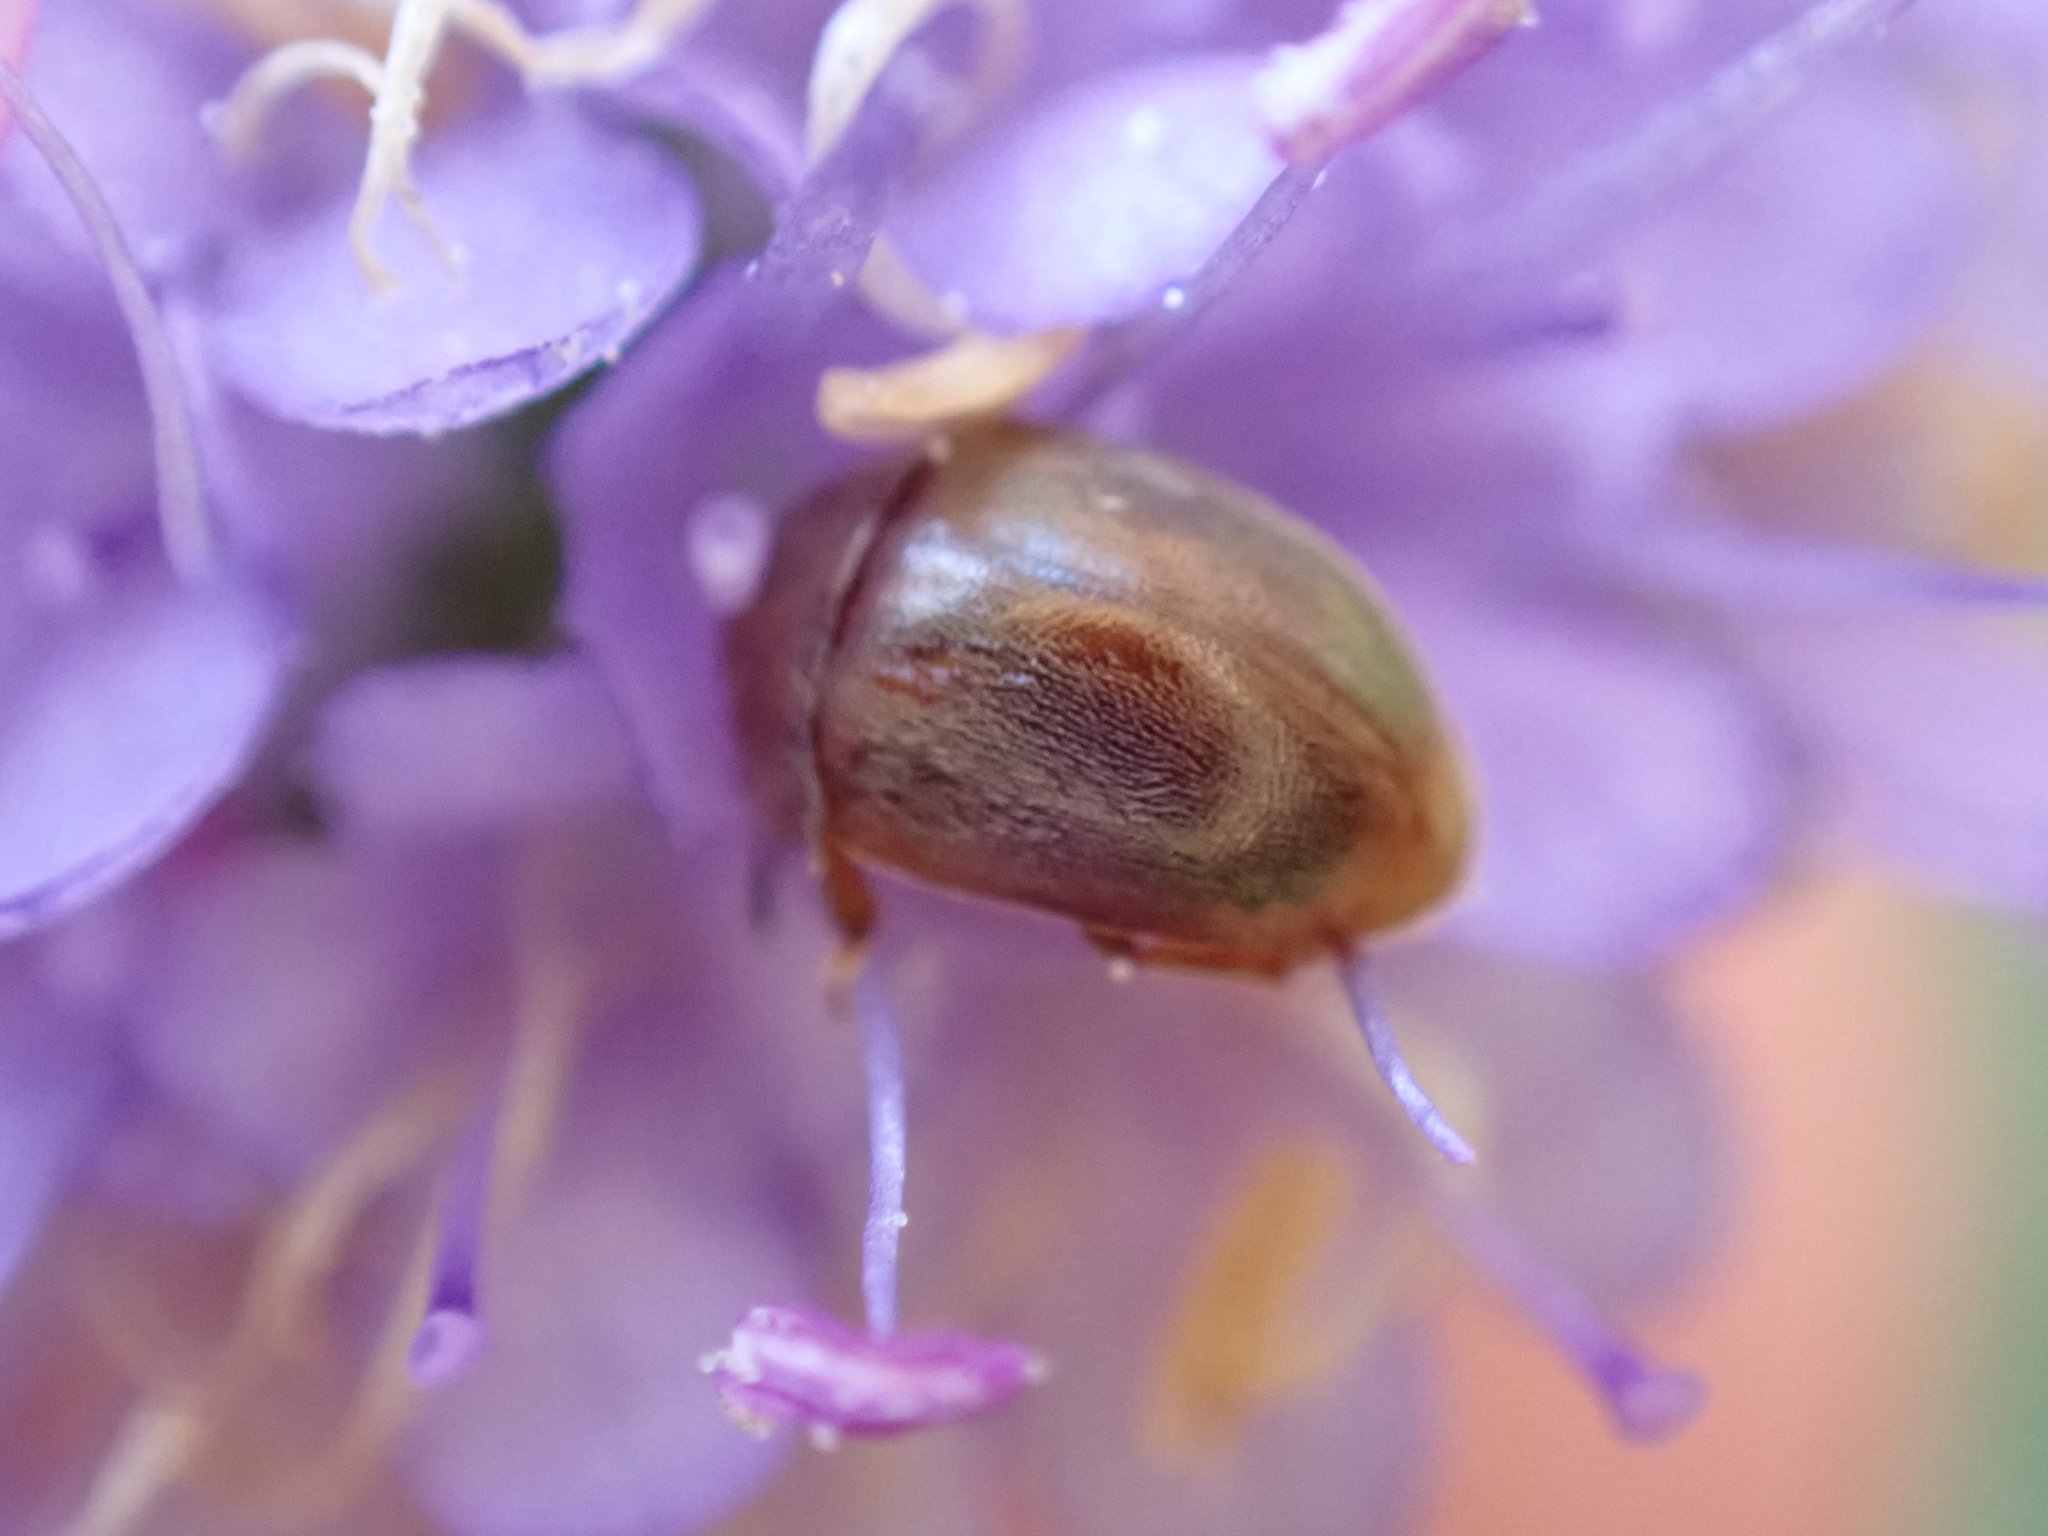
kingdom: Animalia
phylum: Arthropoda
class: Insecta
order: Coleoptera
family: Nitidulidae
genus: Cychramus
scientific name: Cychramus luteus
